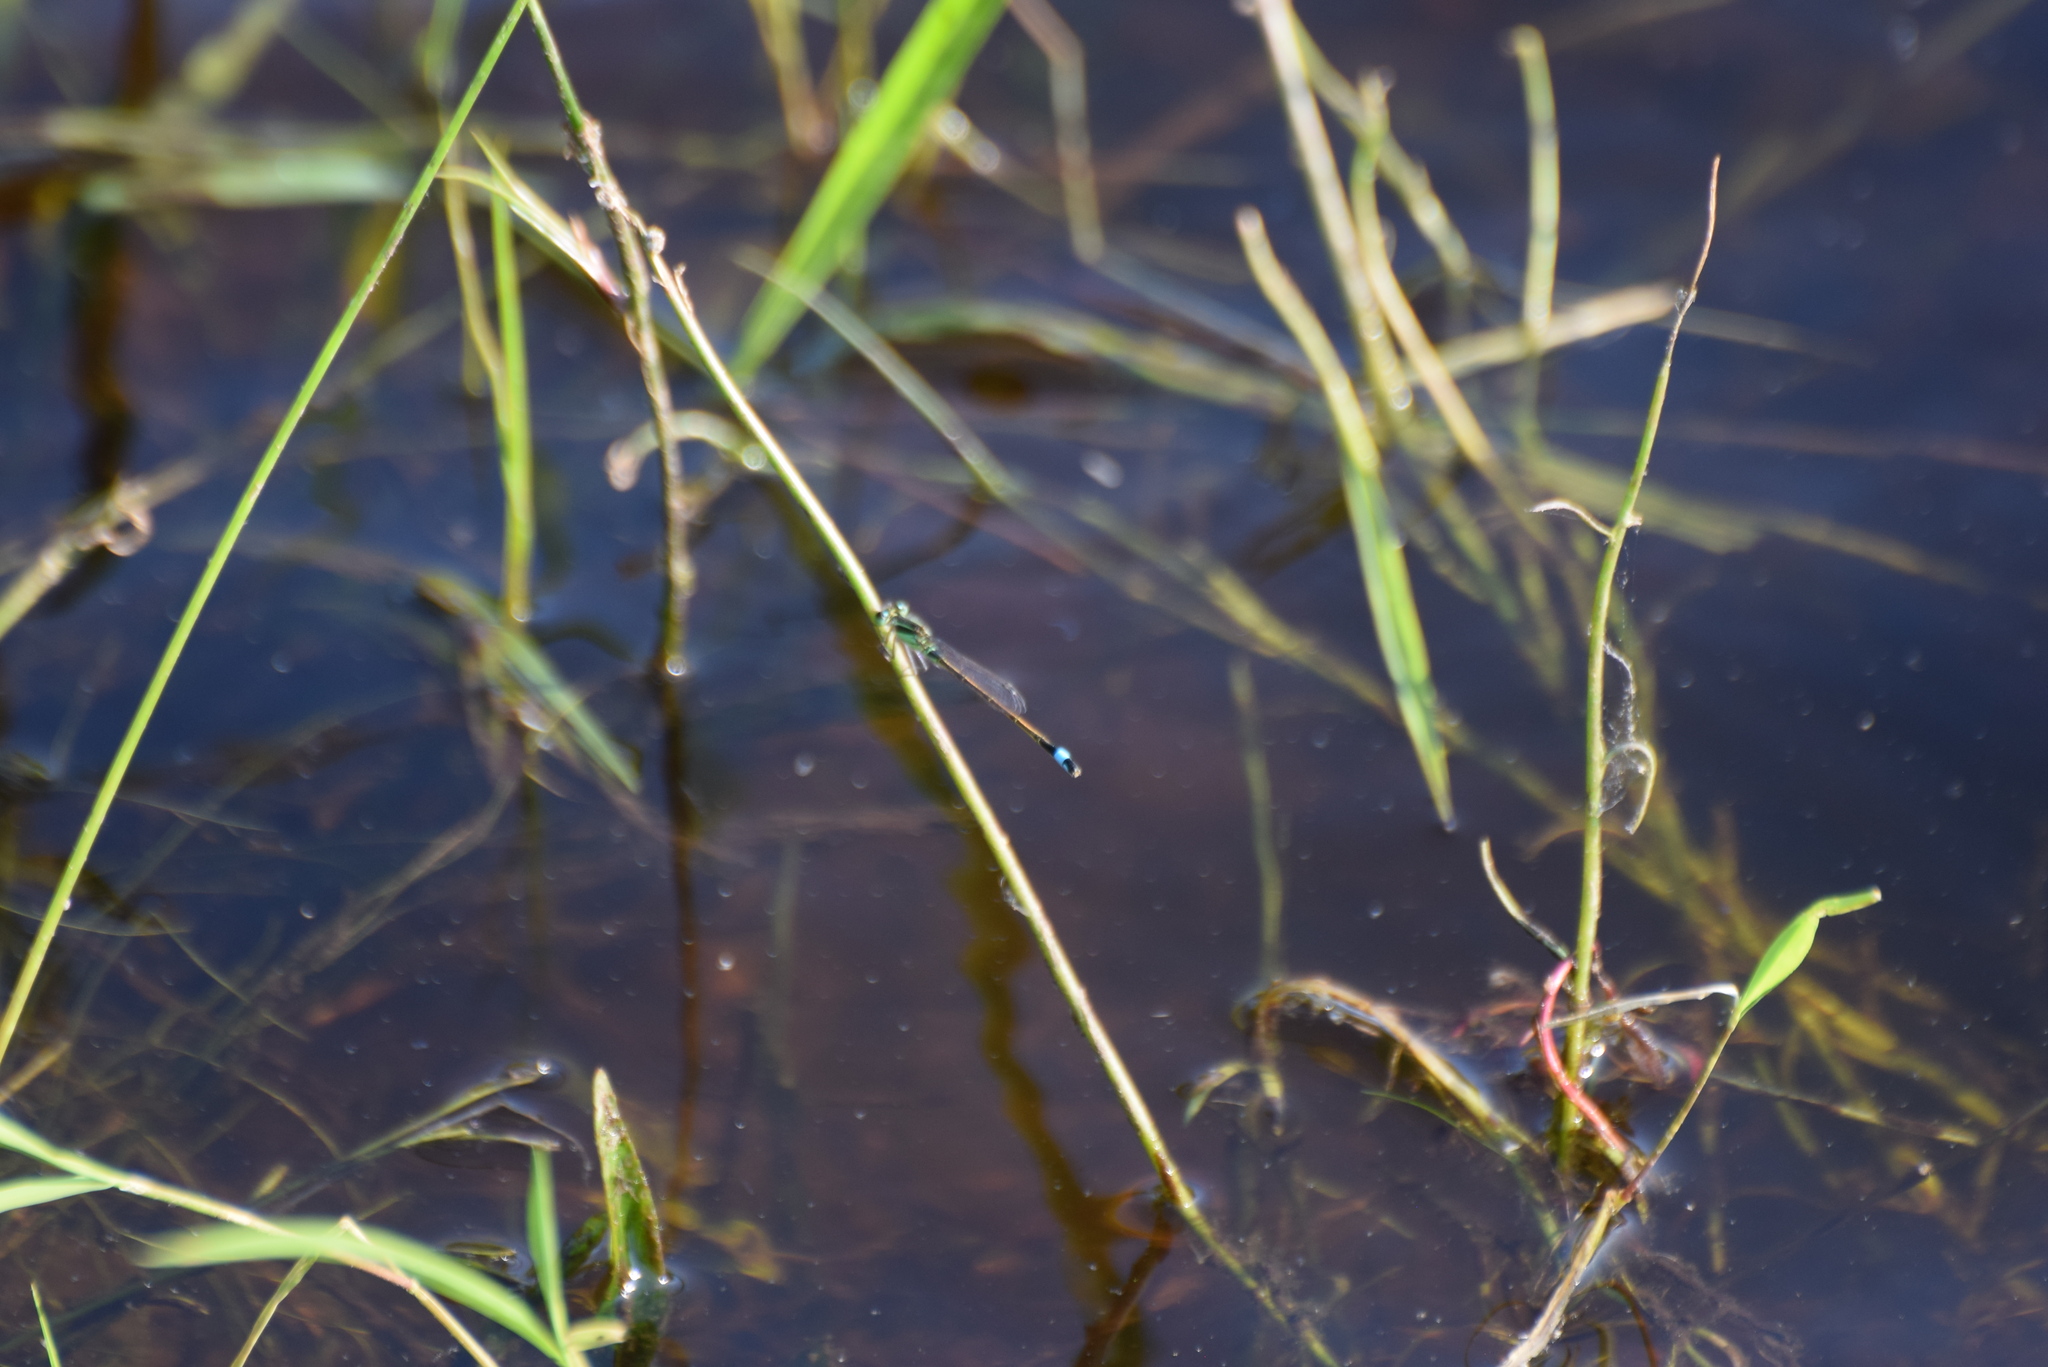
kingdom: Animalia
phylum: Arthropoda
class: Insecta
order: Odonata
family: Coenagrionidae
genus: Ischnura
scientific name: Ischnura ramburii
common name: Rambur's forktail
